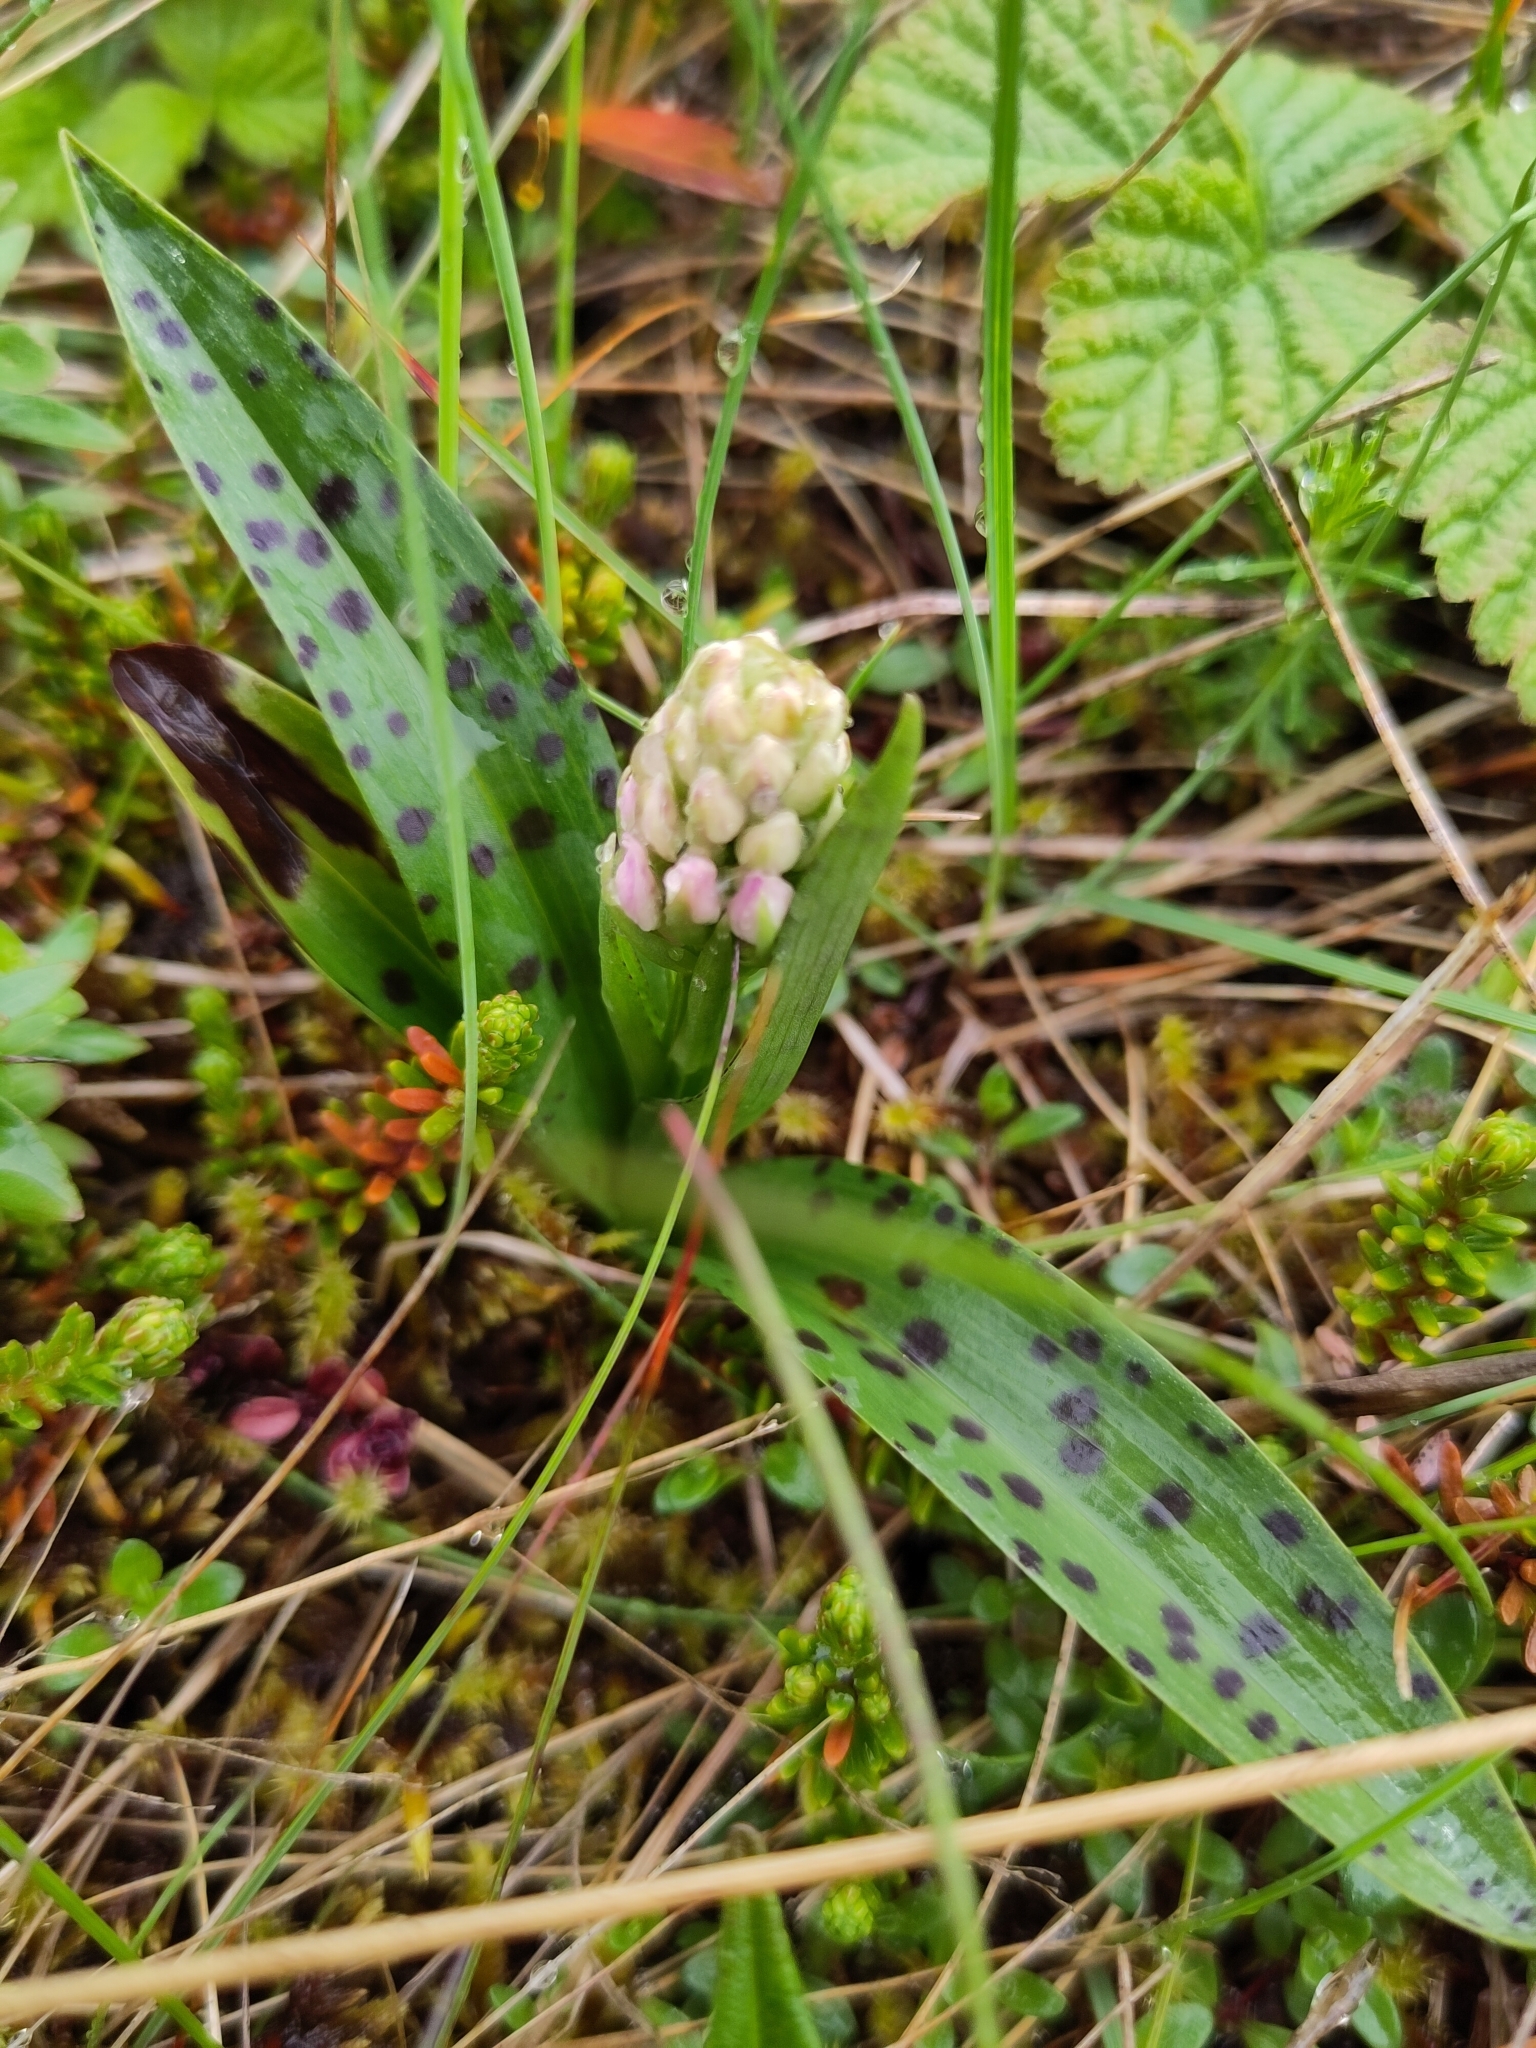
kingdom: Plantae
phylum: Tracheophyta
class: Liliopsida
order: Asparagales
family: Orchidaceae
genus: Dactylorhiza
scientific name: Dactylorhiza maculata
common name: Heath spotted-orchid
